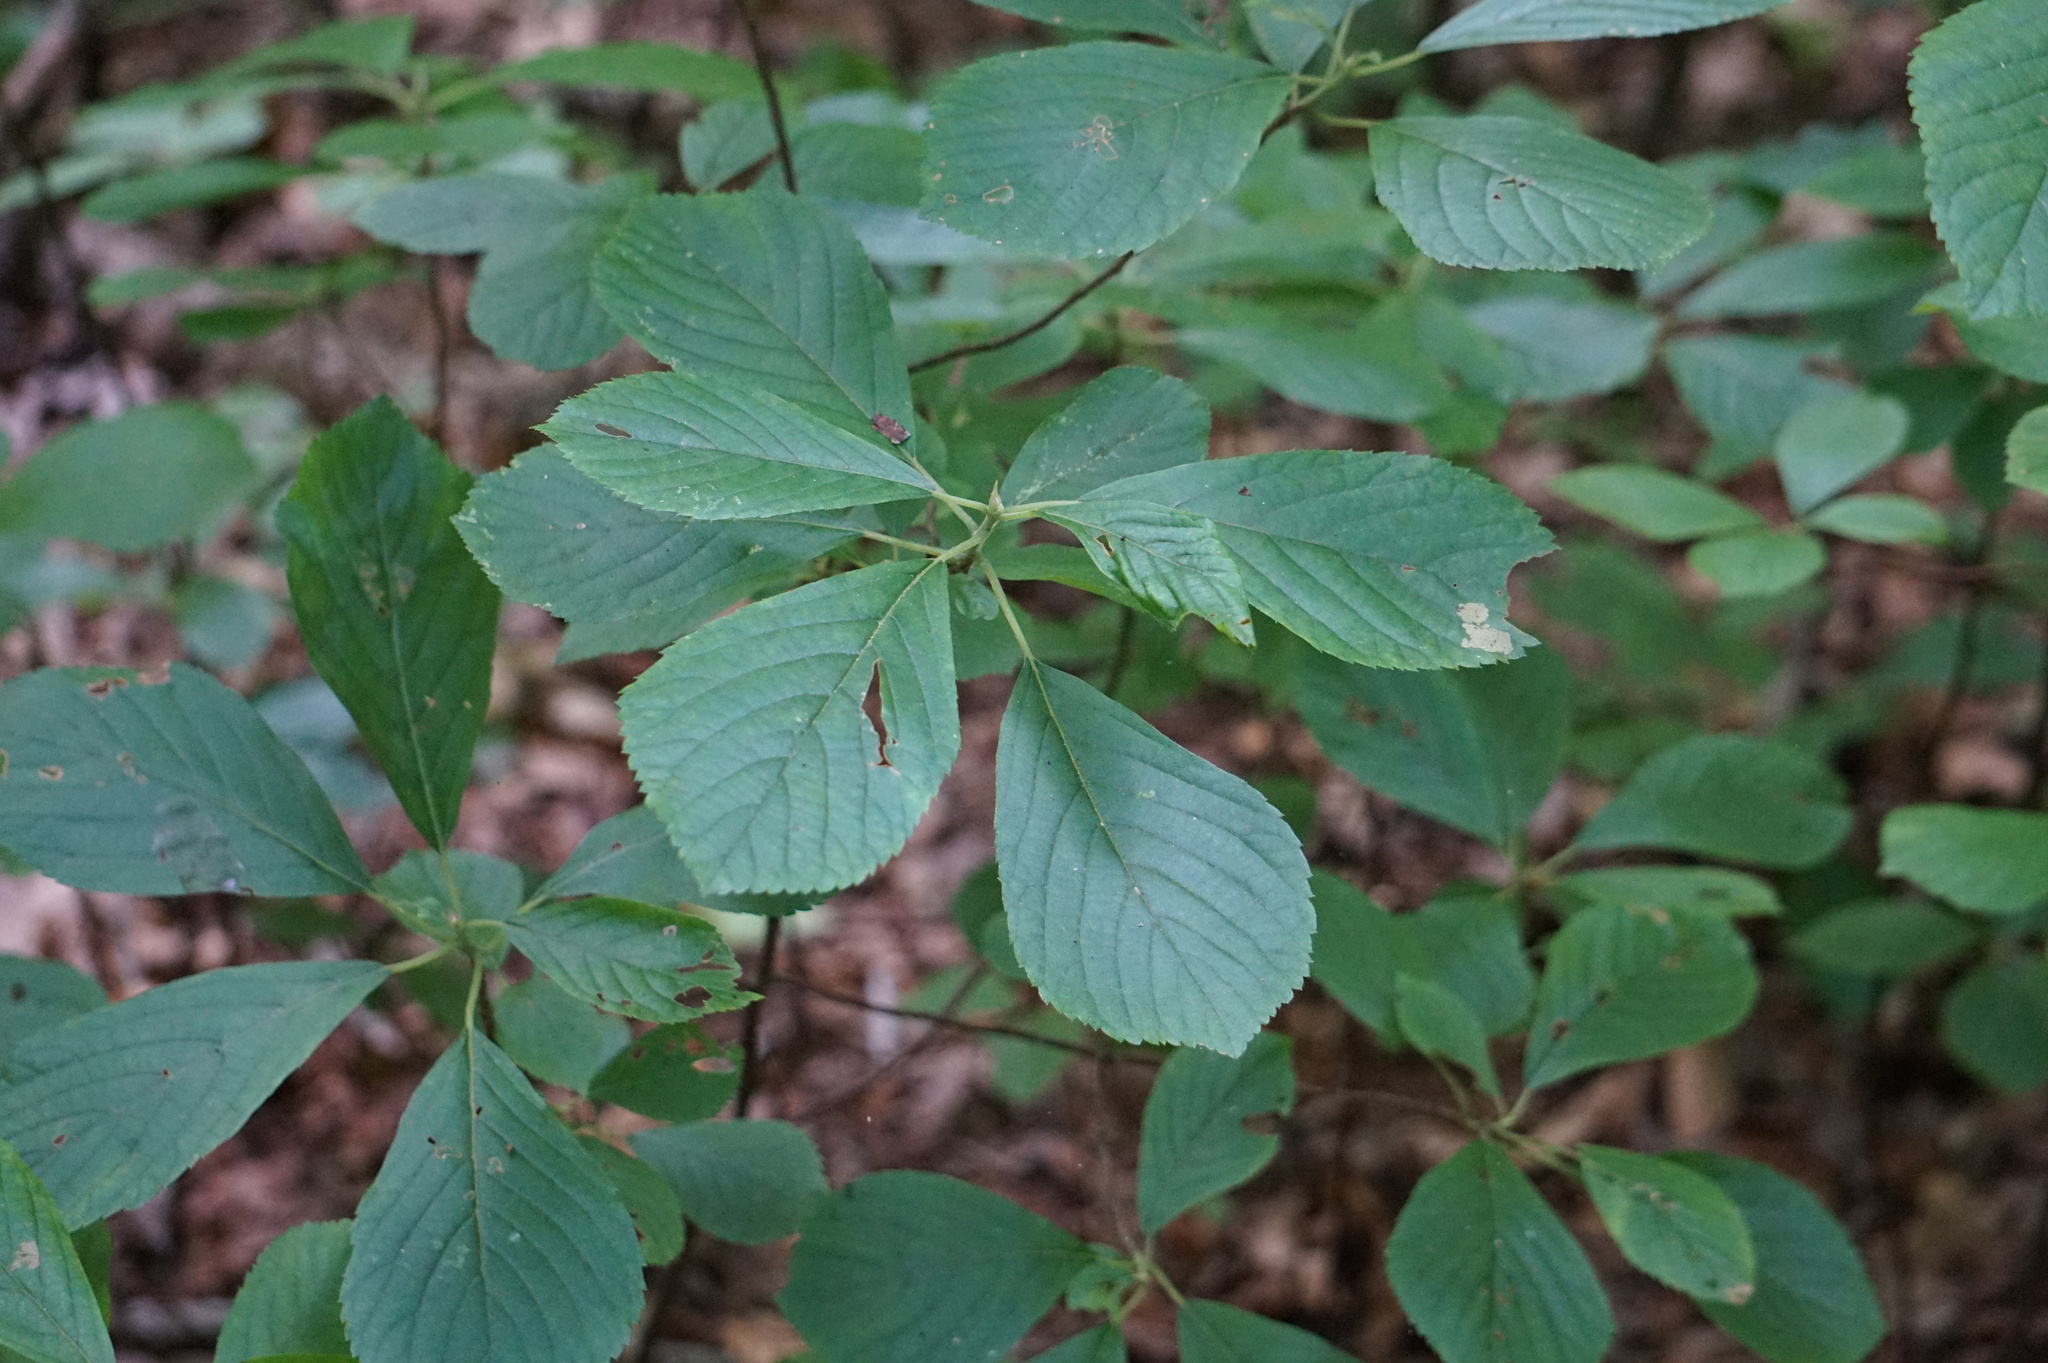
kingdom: Plantae
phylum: Tracheophyta
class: Magnoliopsida
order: Ericales
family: Clethraceae
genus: Clethra
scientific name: Clethra alnifolia
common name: Sweet pepperbush
